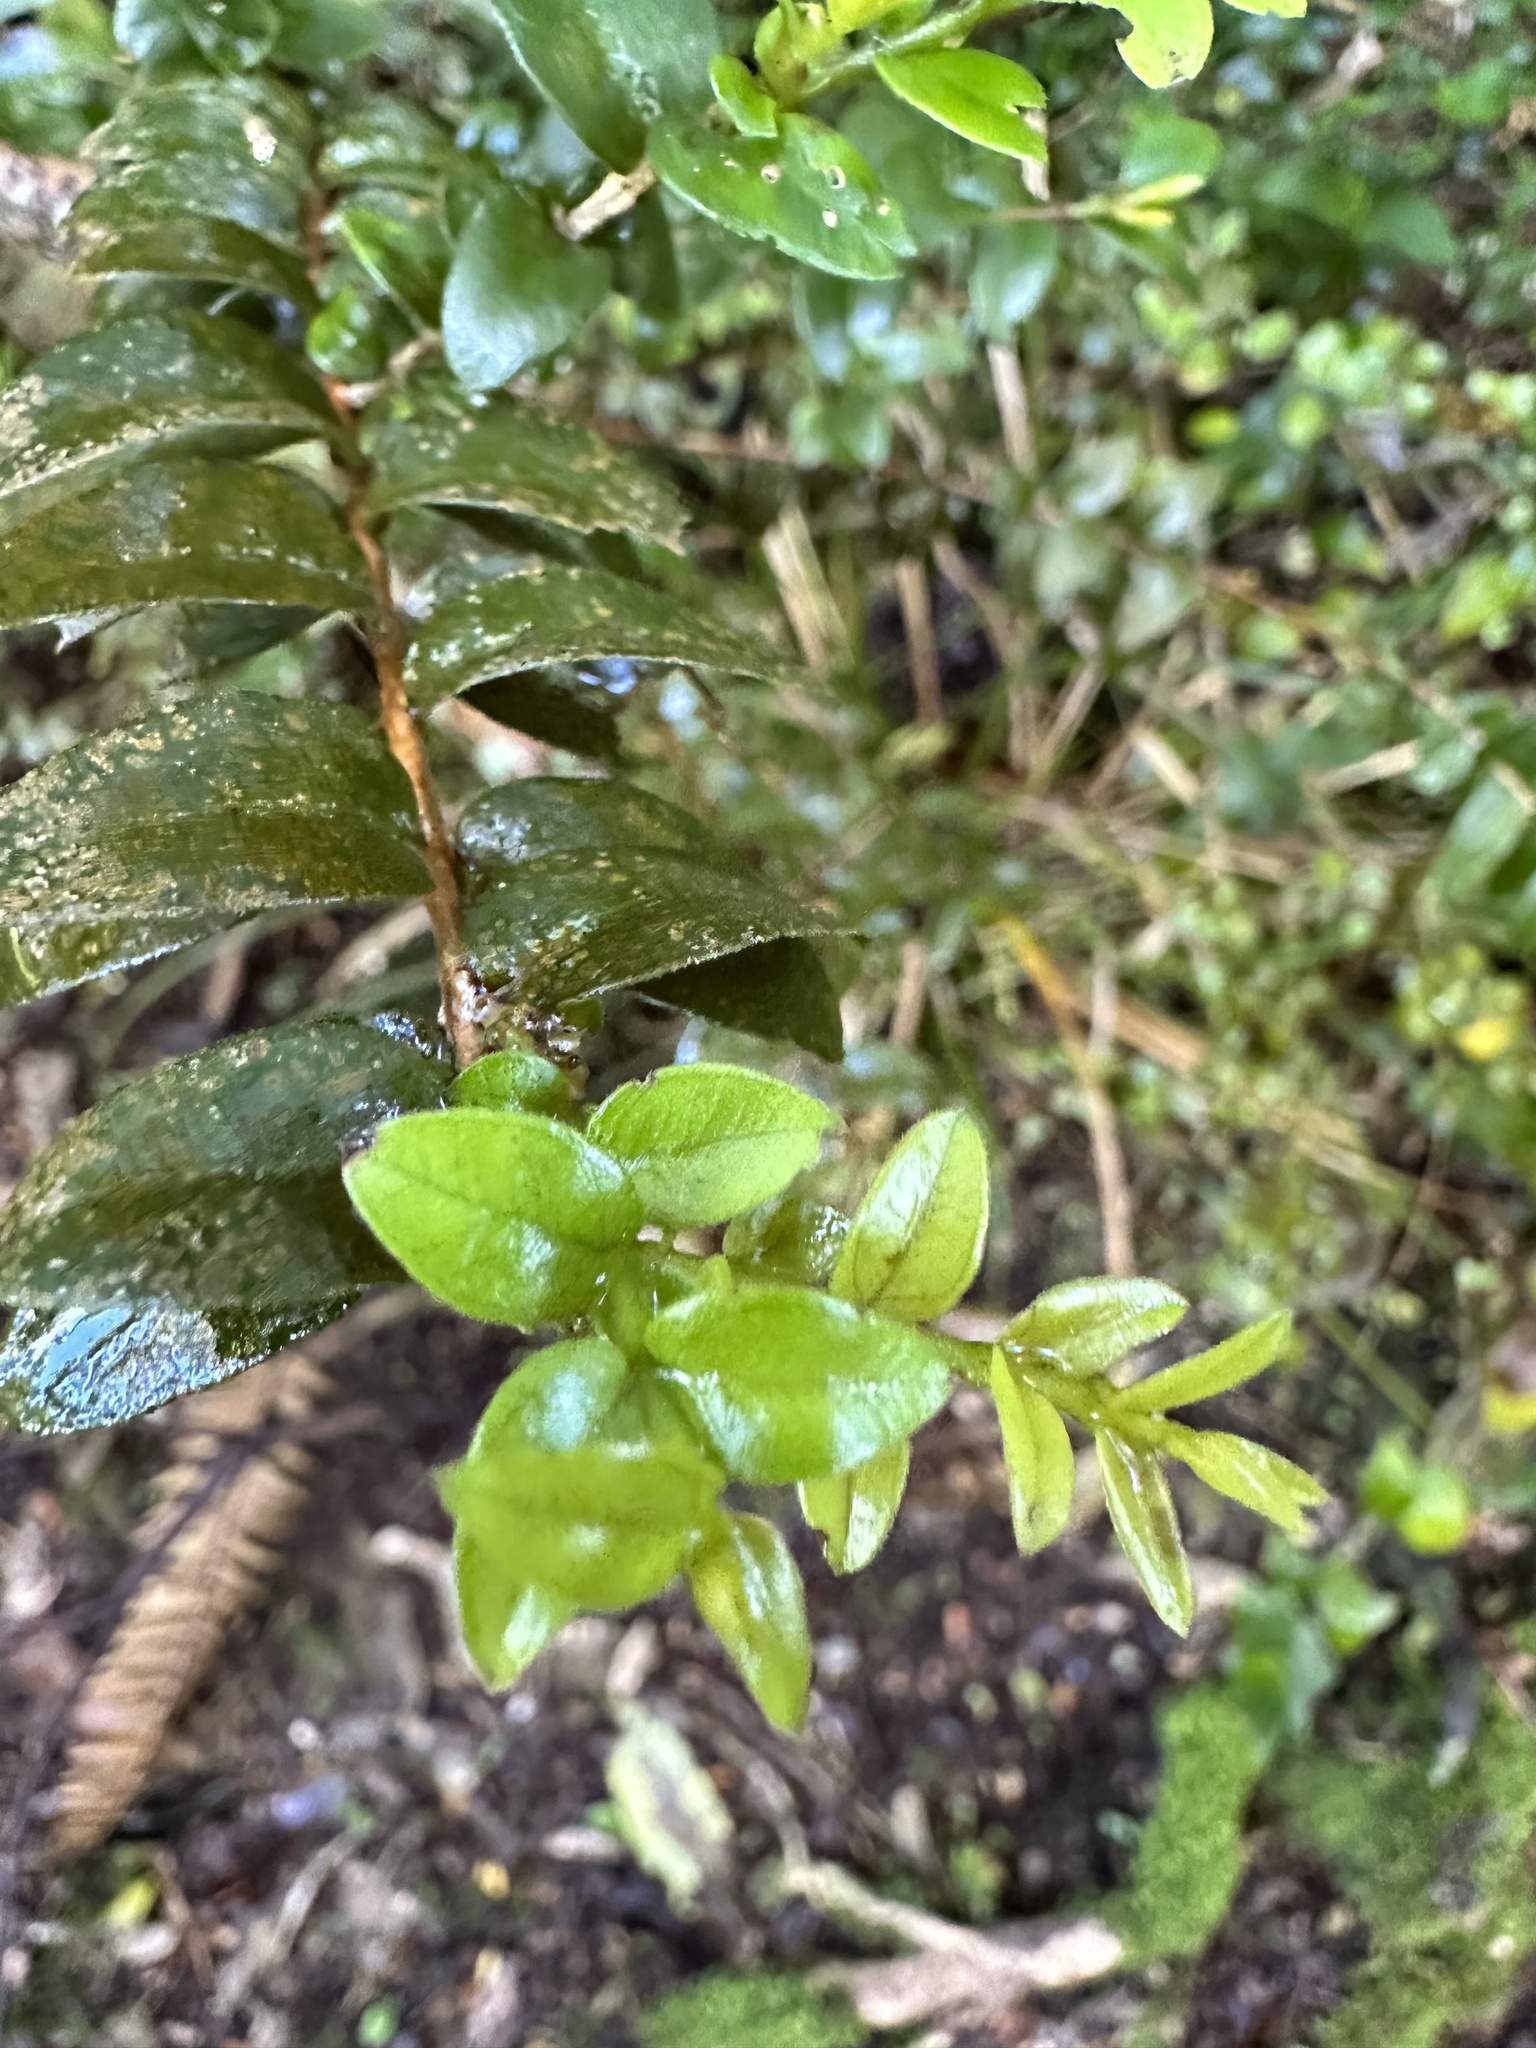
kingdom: Plantae
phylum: Tracheophyta
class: Magnoliopsida
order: Myrtales
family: Myrtaceae
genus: Metrosideros
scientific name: Metrosideros diffusa
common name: Small ratavine
